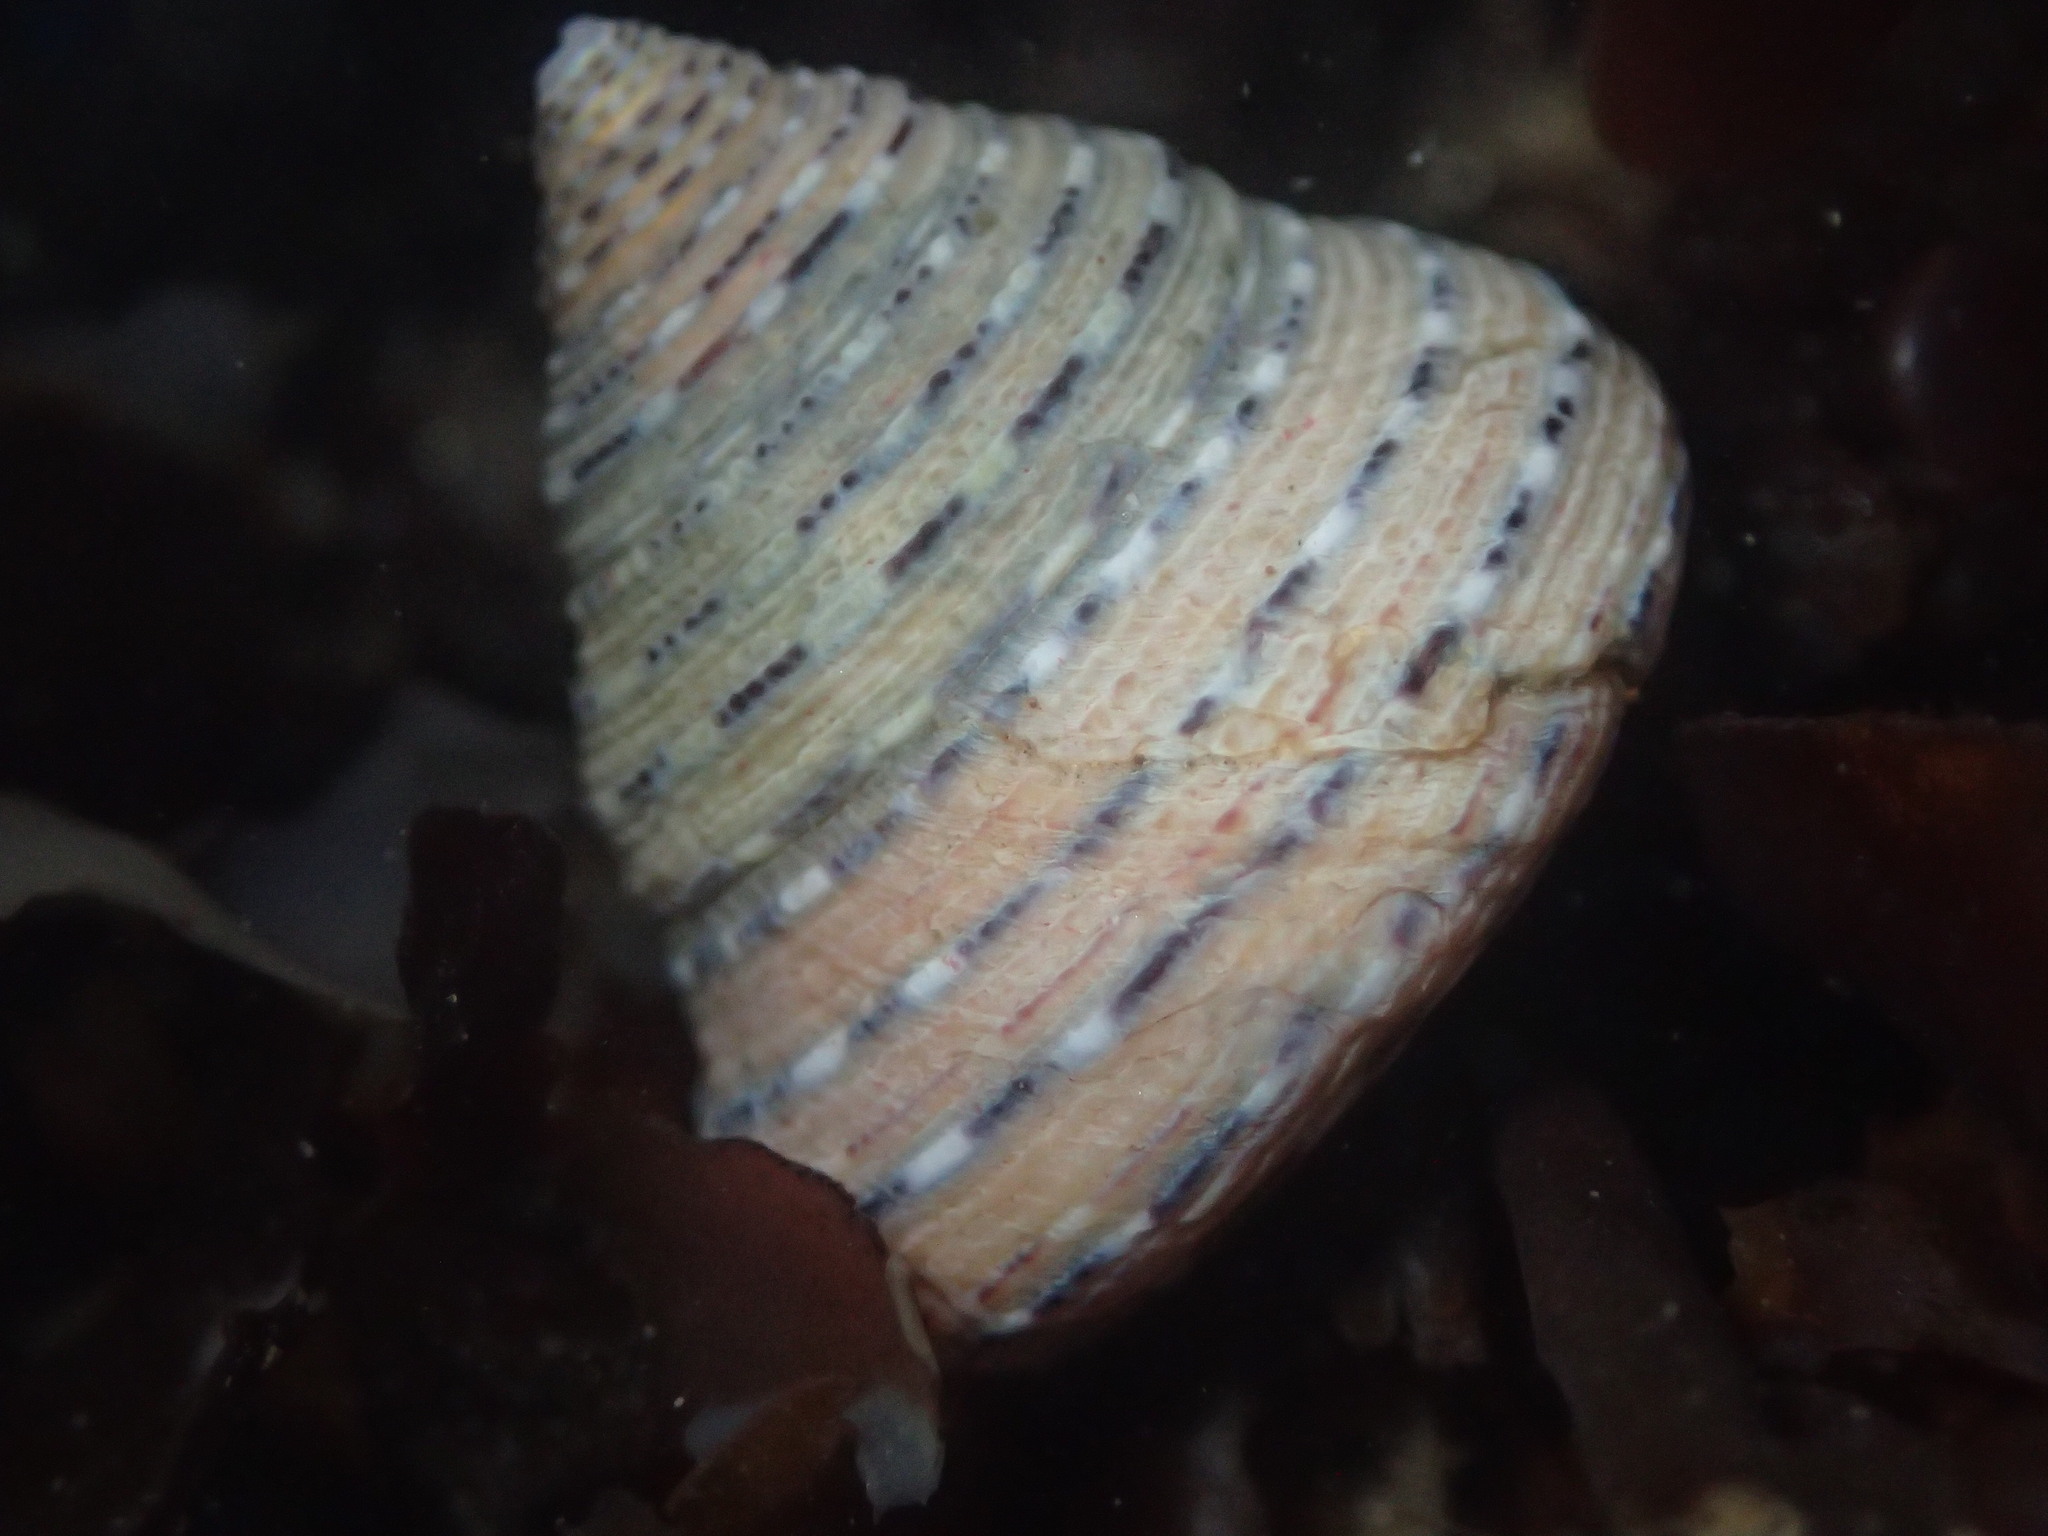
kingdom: Animalia
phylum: Mollusca
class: Gastropoda
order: Trochida
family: Calliostomatidae
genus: Calliostoma
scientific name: Calliostoma tricolor
